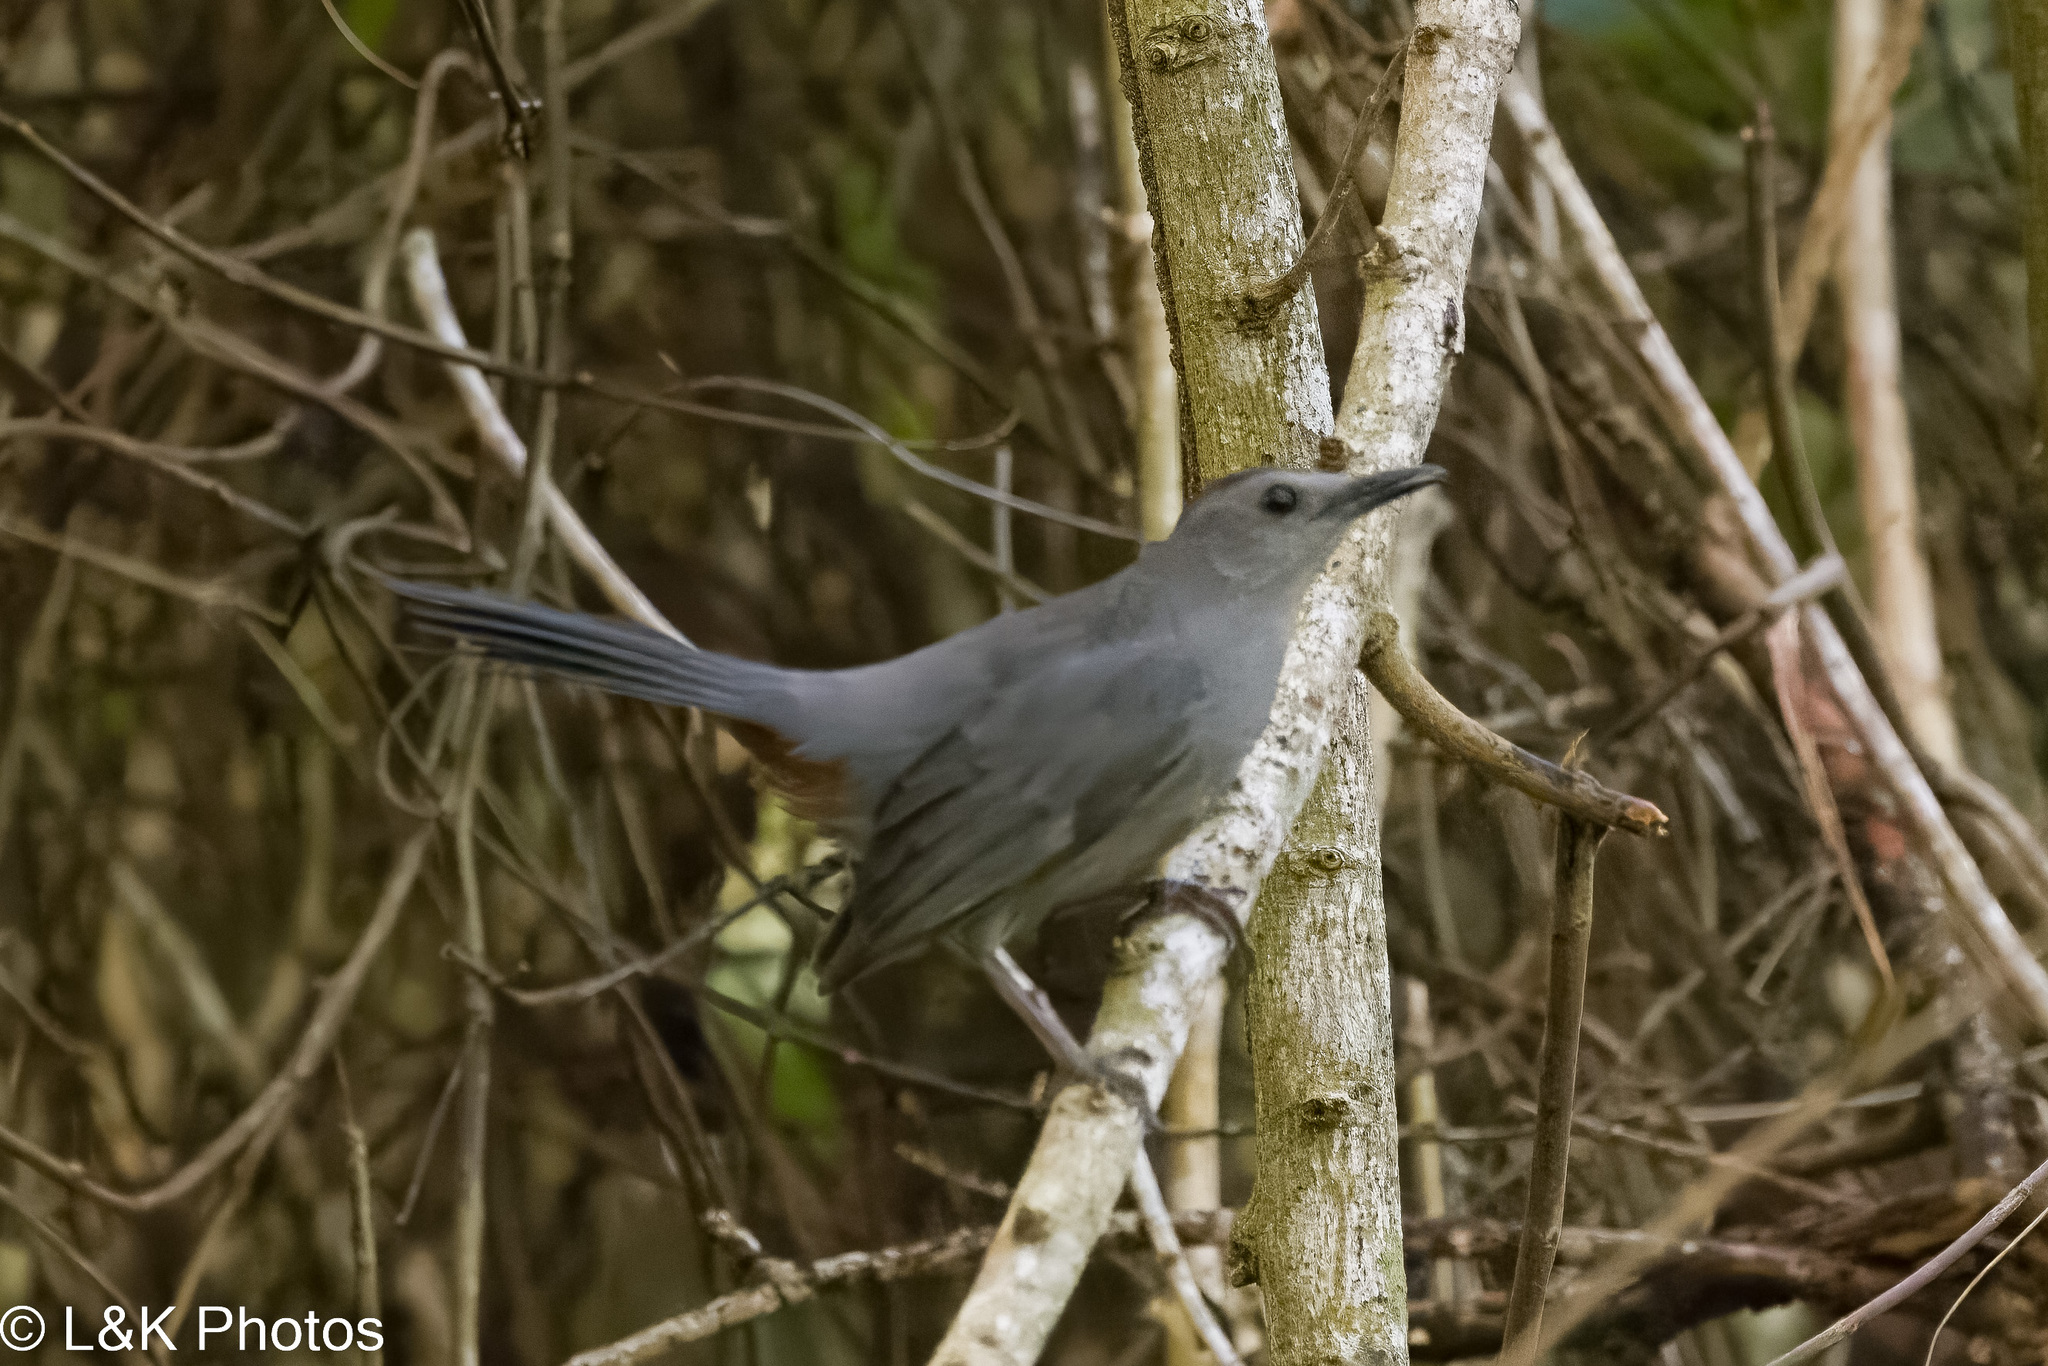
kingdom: Animalia
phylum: Chordata
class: Aves
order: Passeriformes
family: Mimidae
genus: Dumetella
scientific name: Dumetella carolinensis
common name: Gray catbird
